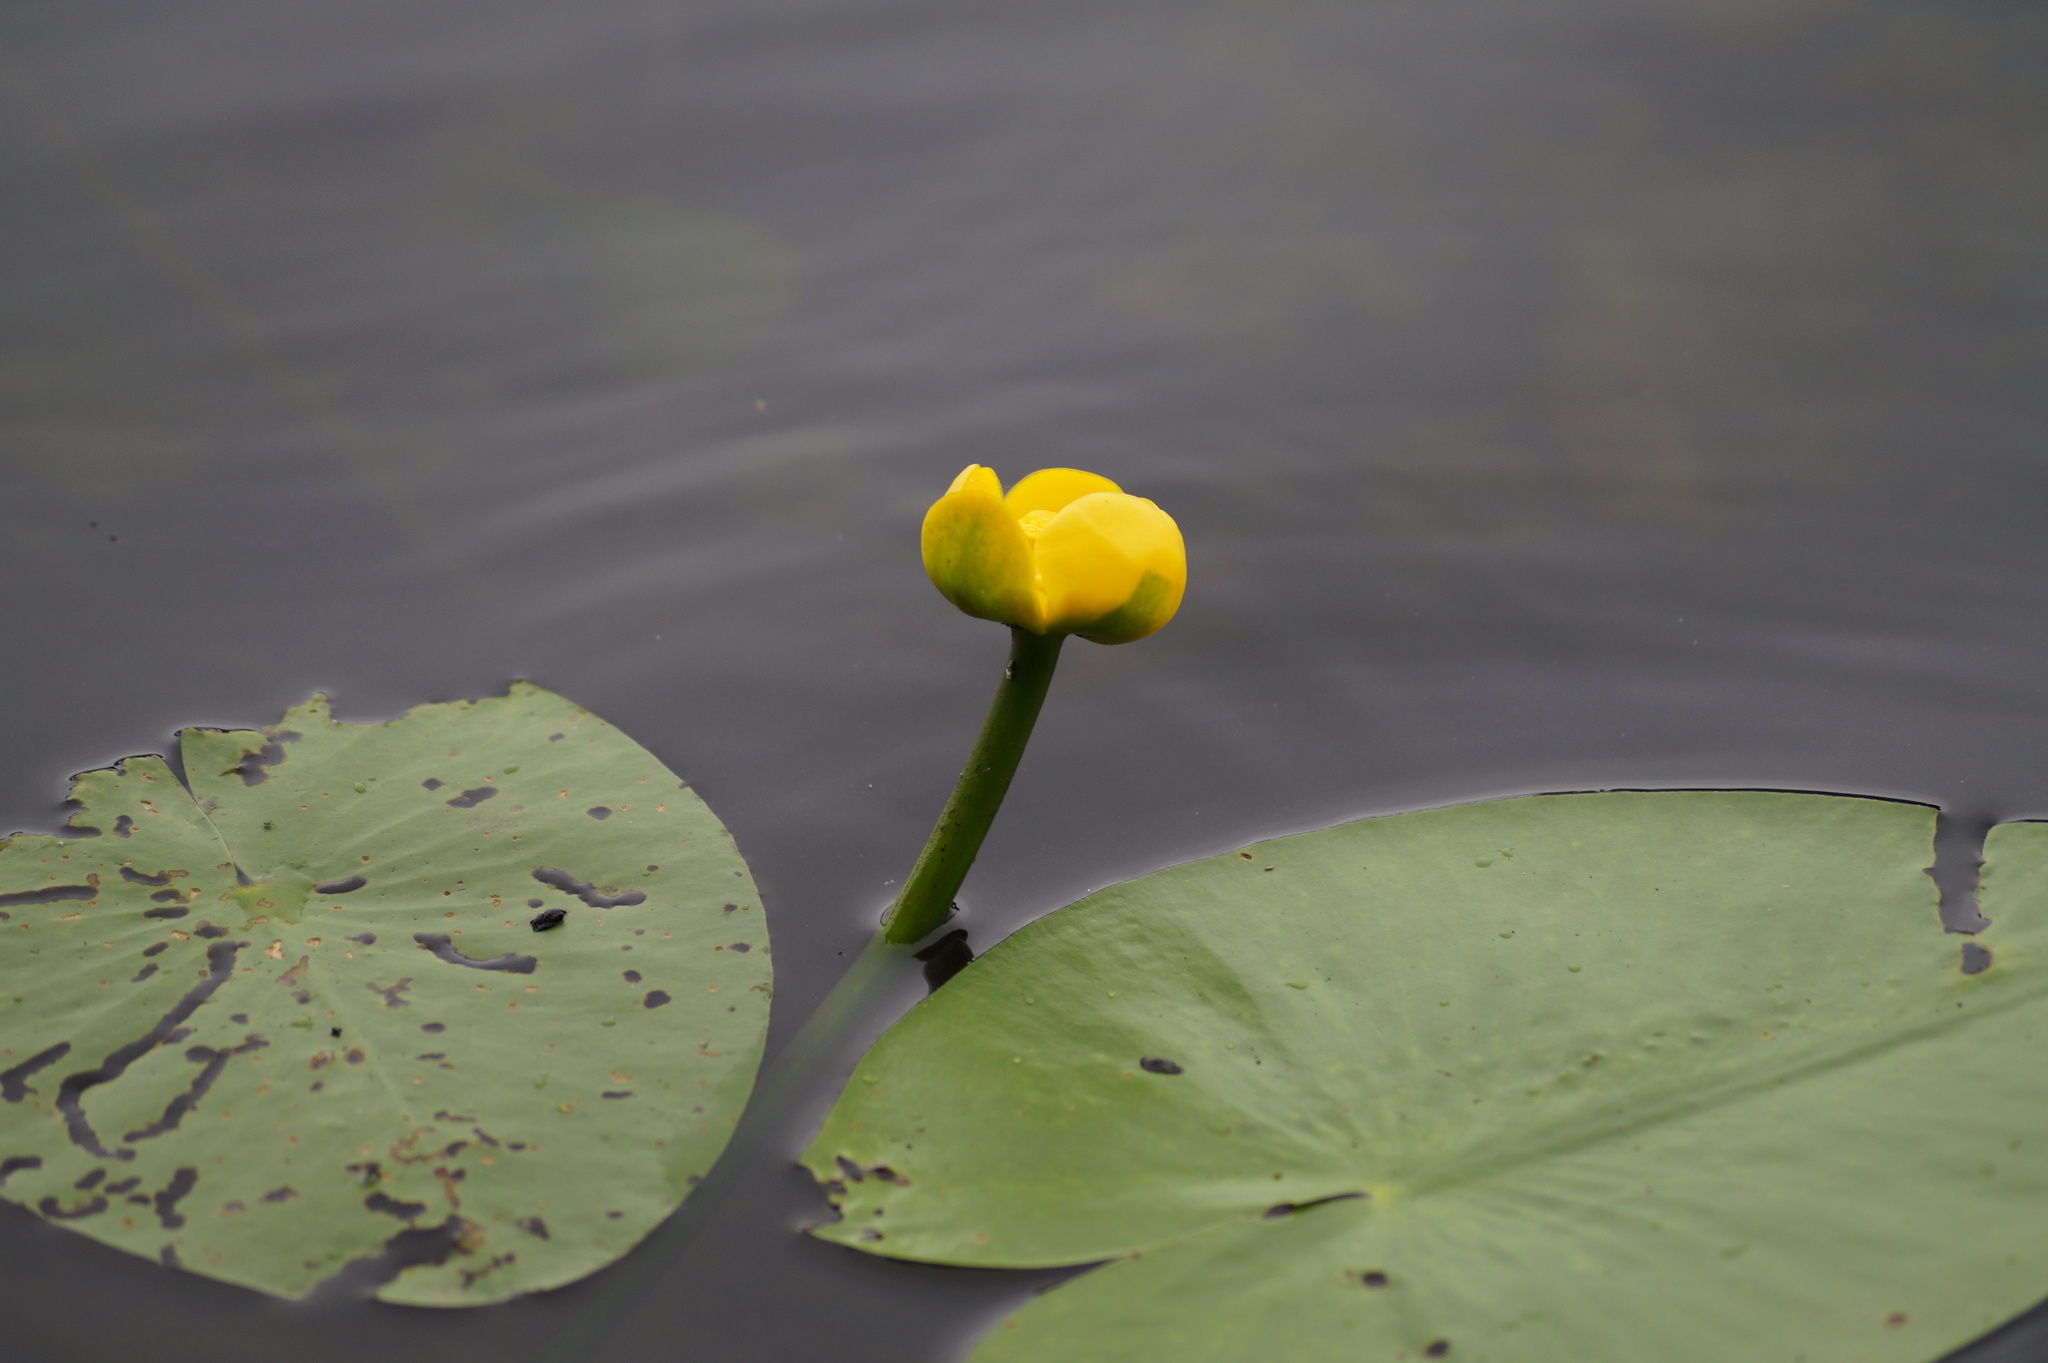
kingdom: Plantae
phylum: Tracheophyta
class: Magnoliopsida
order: Nymphaeales
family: Nymphaeaceae
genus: Nuphar
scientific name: Nuphar lutea
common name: Yellow water-lily
